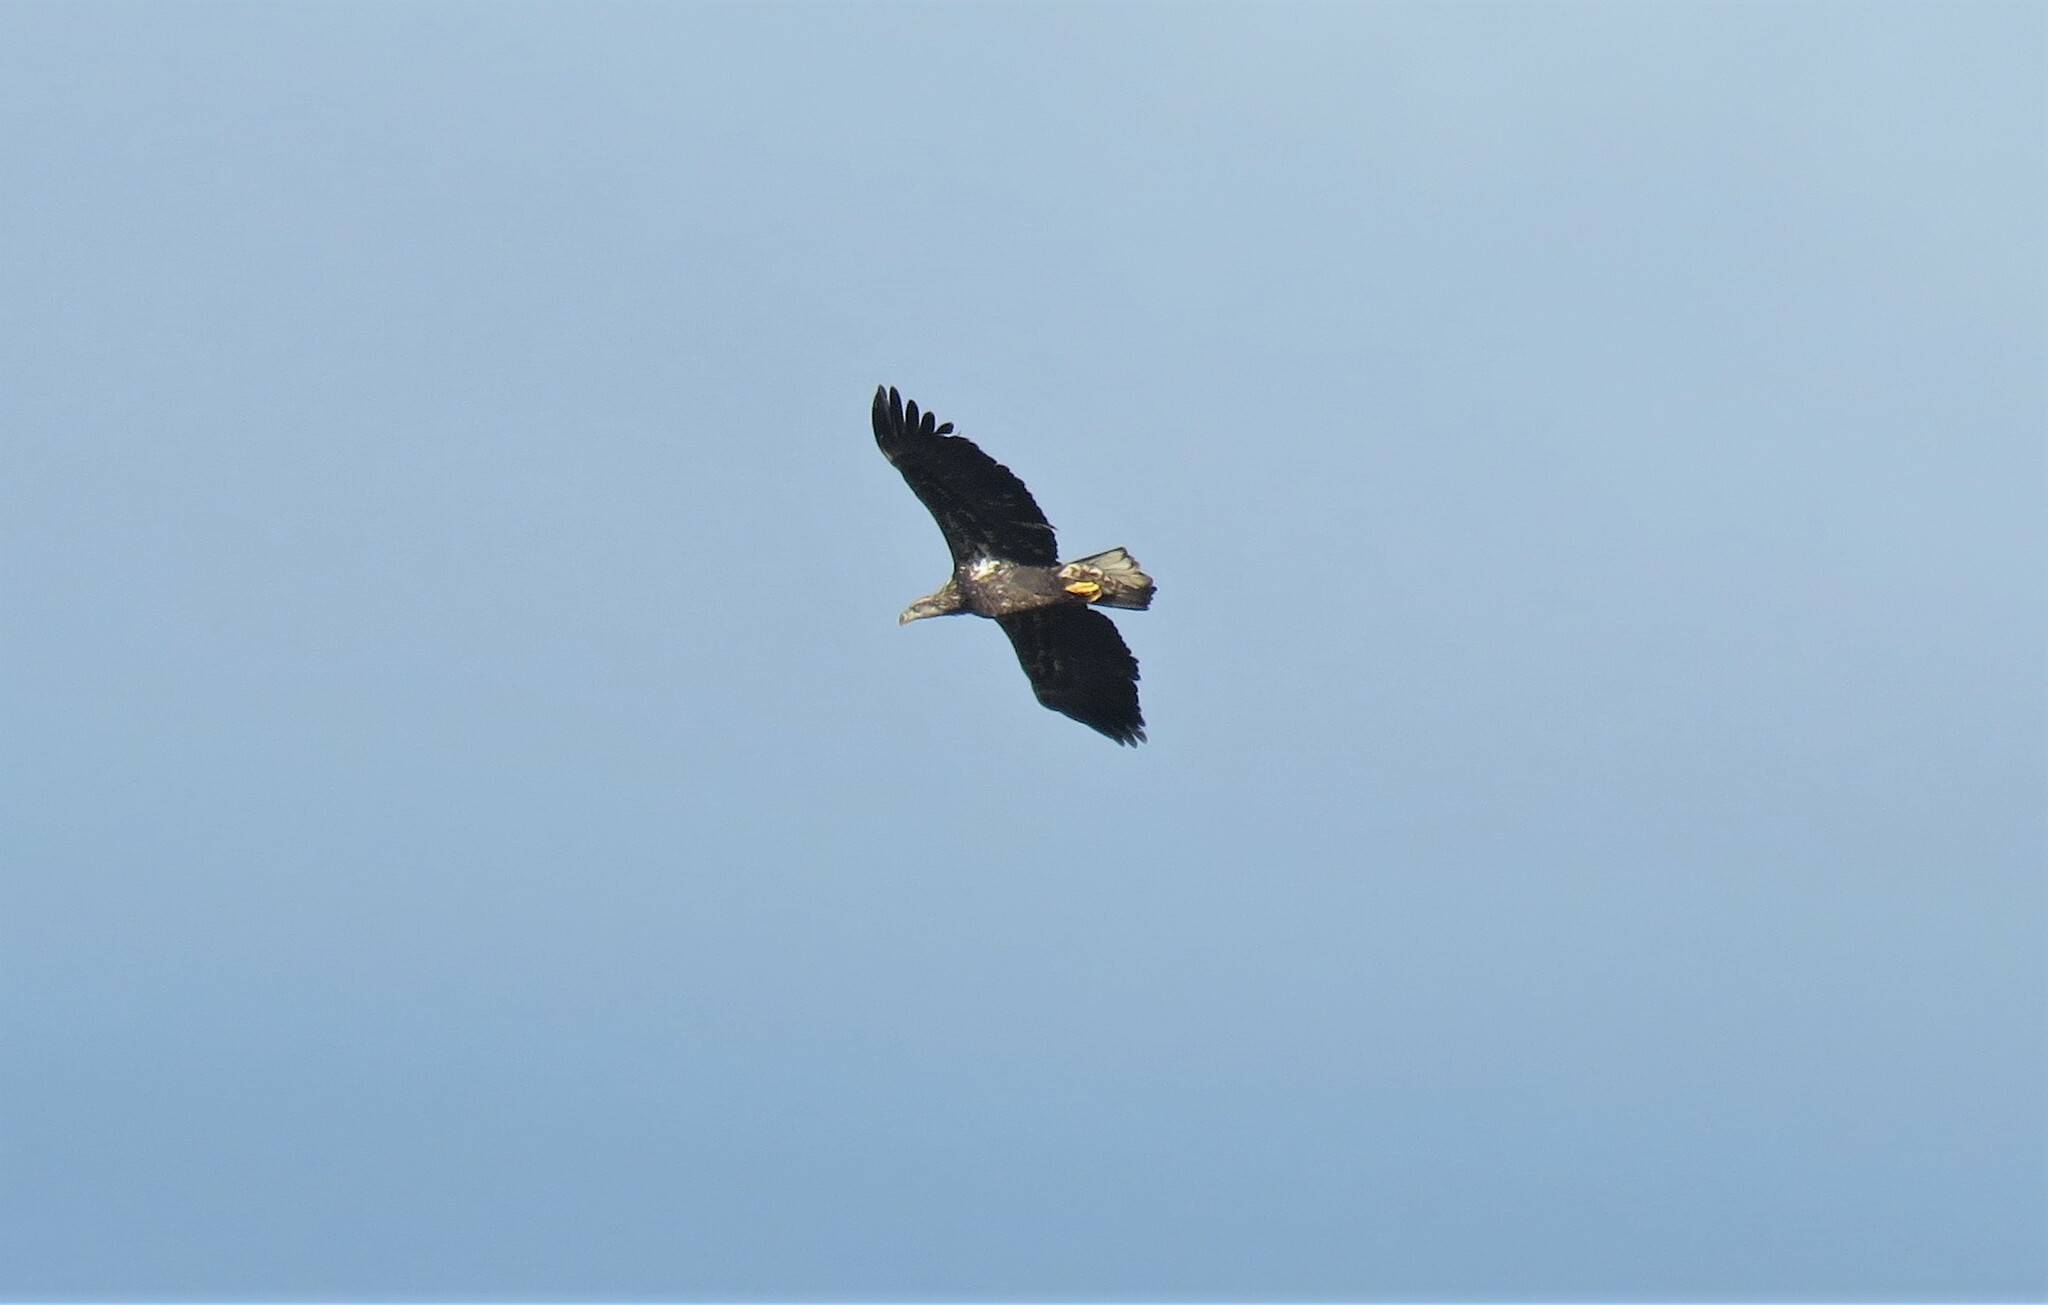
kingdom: Animalia
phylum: Chordata
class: Aves
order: Accipitriformes
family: Accipitridae
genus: Haliaeetus
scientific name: Haliaeetus leucocephalus
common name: Bald eagle
